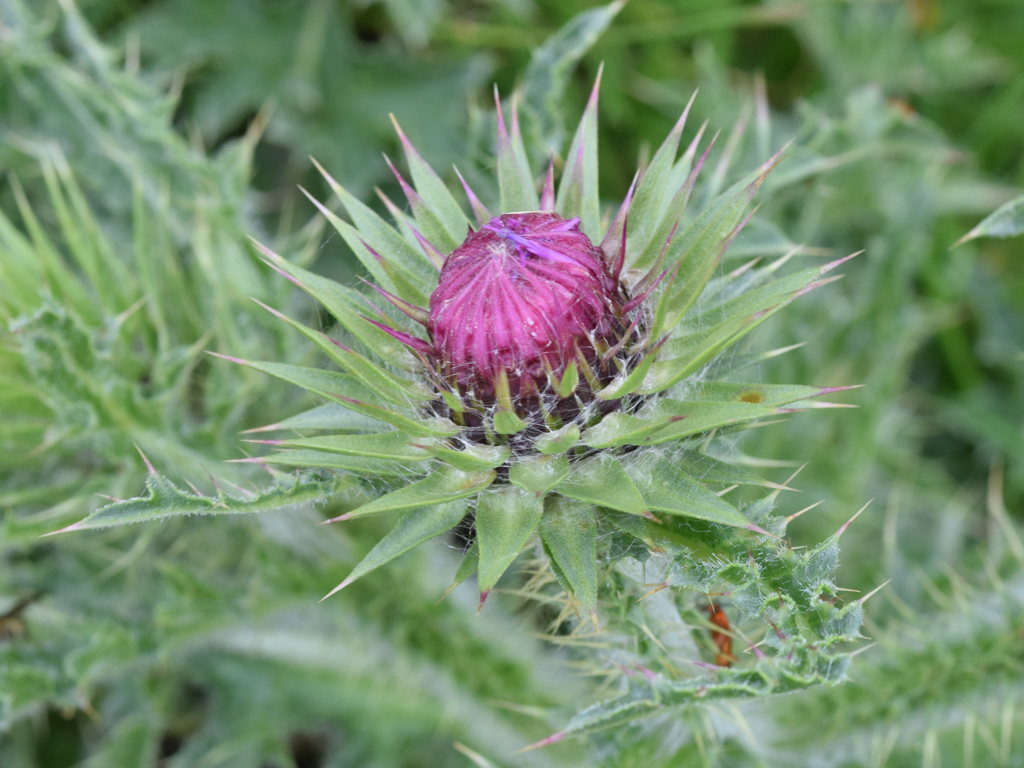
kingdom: Plantae
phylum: Tracheophyta
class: Magnoliopsida
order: Asterales
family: Asteraceae
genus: Carduus
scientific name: Carduus nutans
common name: Musk thistle
